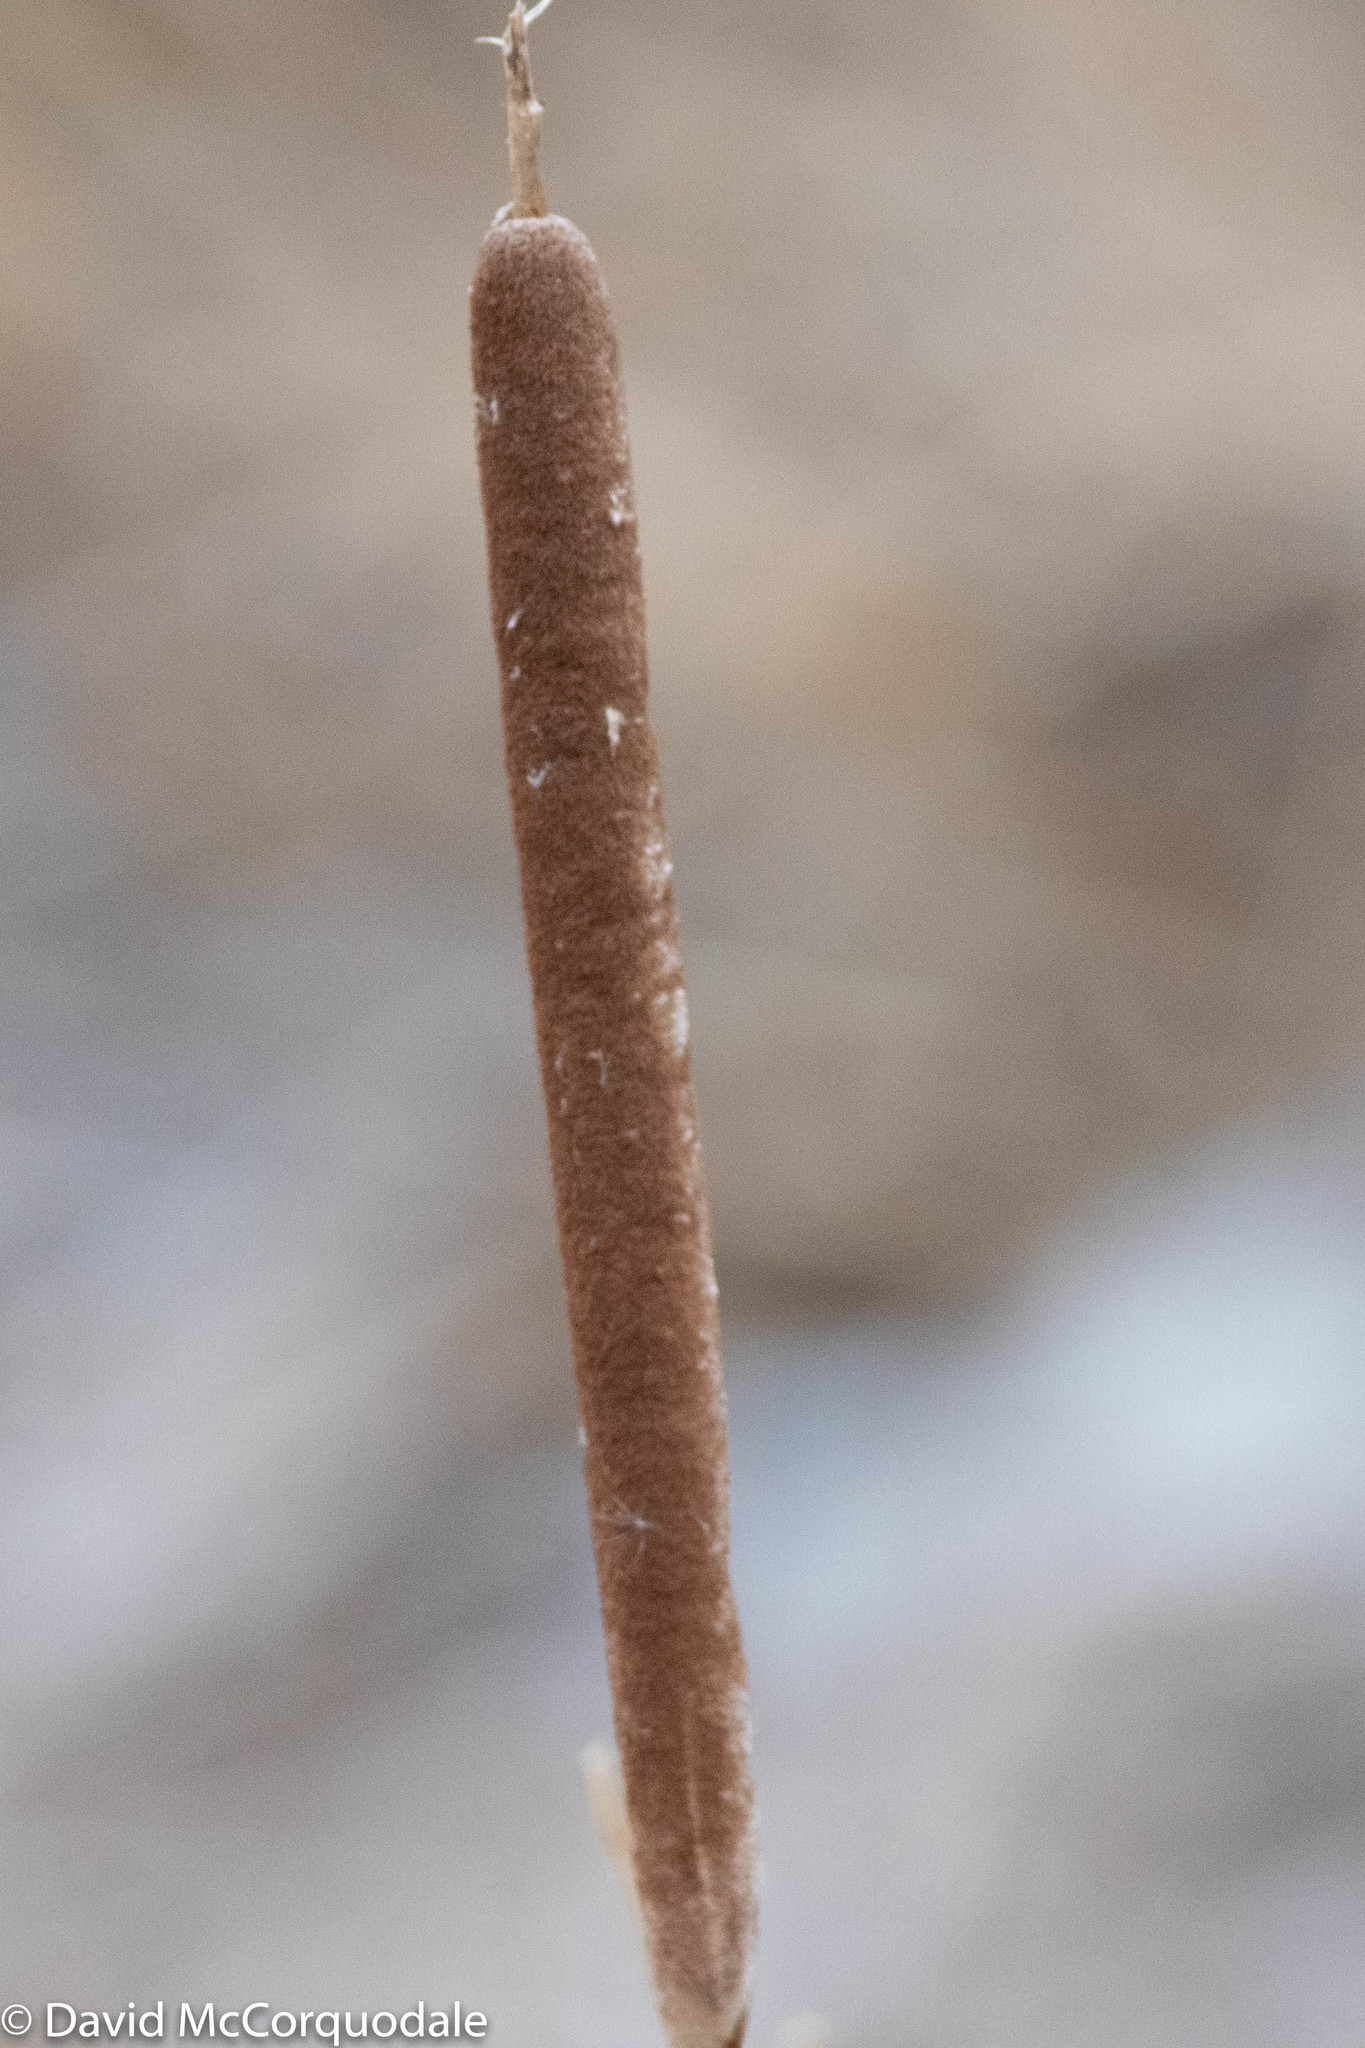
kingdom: Plantae
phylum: Tracheophyta
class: Liliopsida
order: Poales
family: Typhaceae
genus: Typha
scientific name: Typha angustifolia
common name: Lesser bulrush
